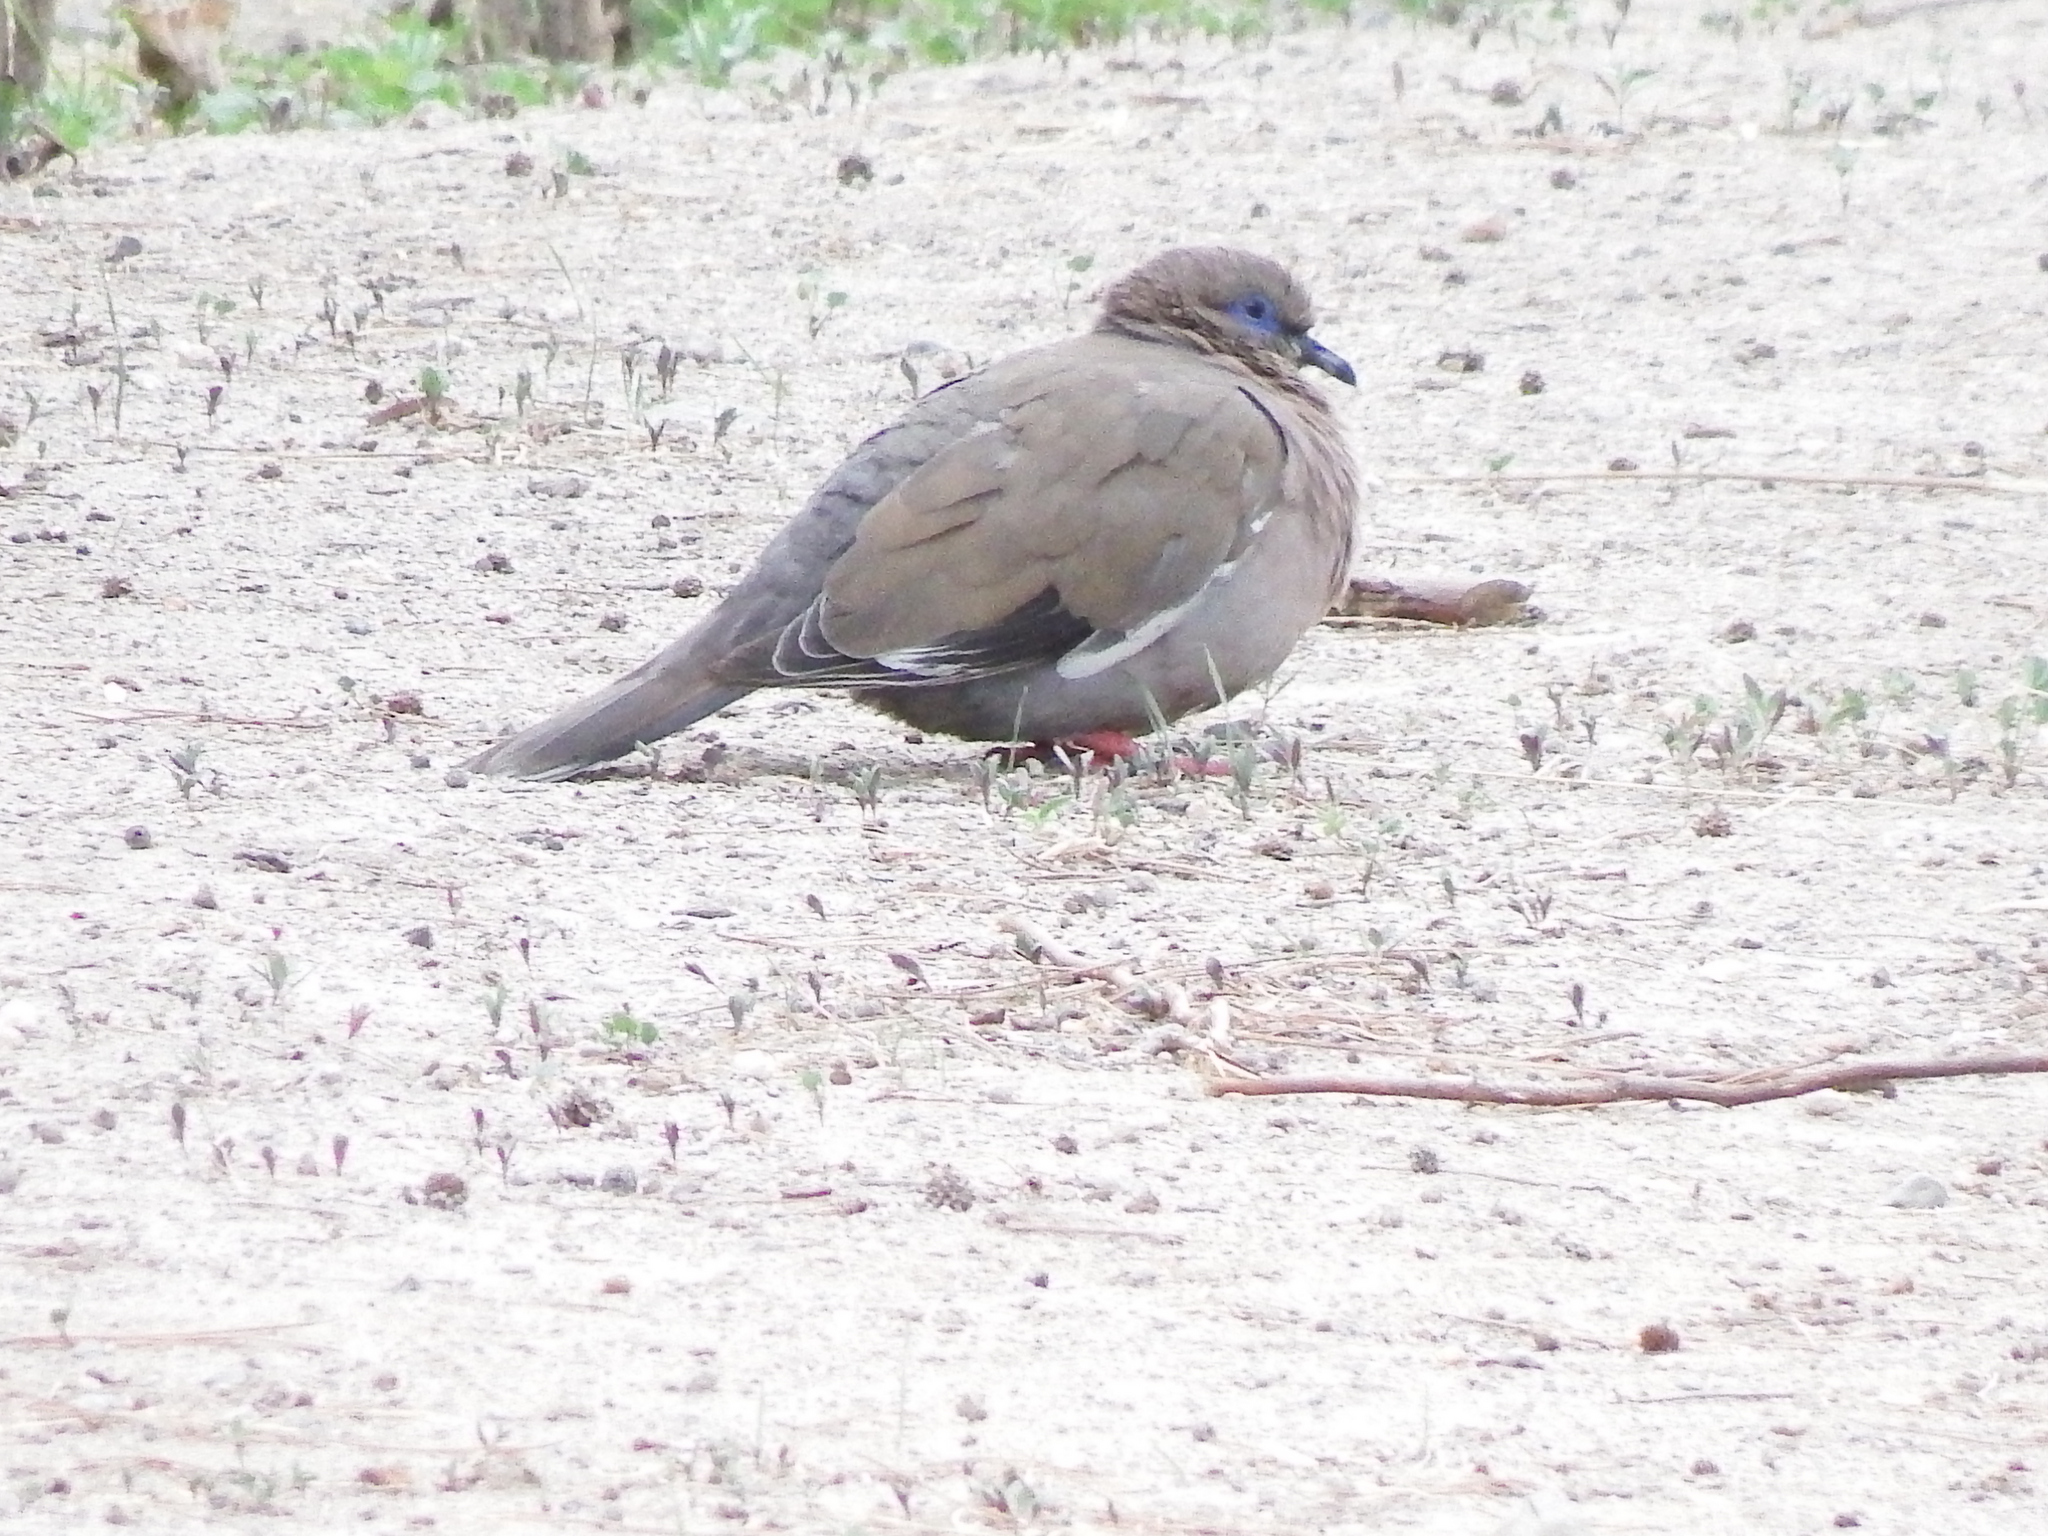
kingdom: Animalia
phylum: Chordata
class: Aves
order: Columbiformes
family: Columbidae
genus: Zenaida
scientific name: Zenaida meloda
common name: West peruvian dove
